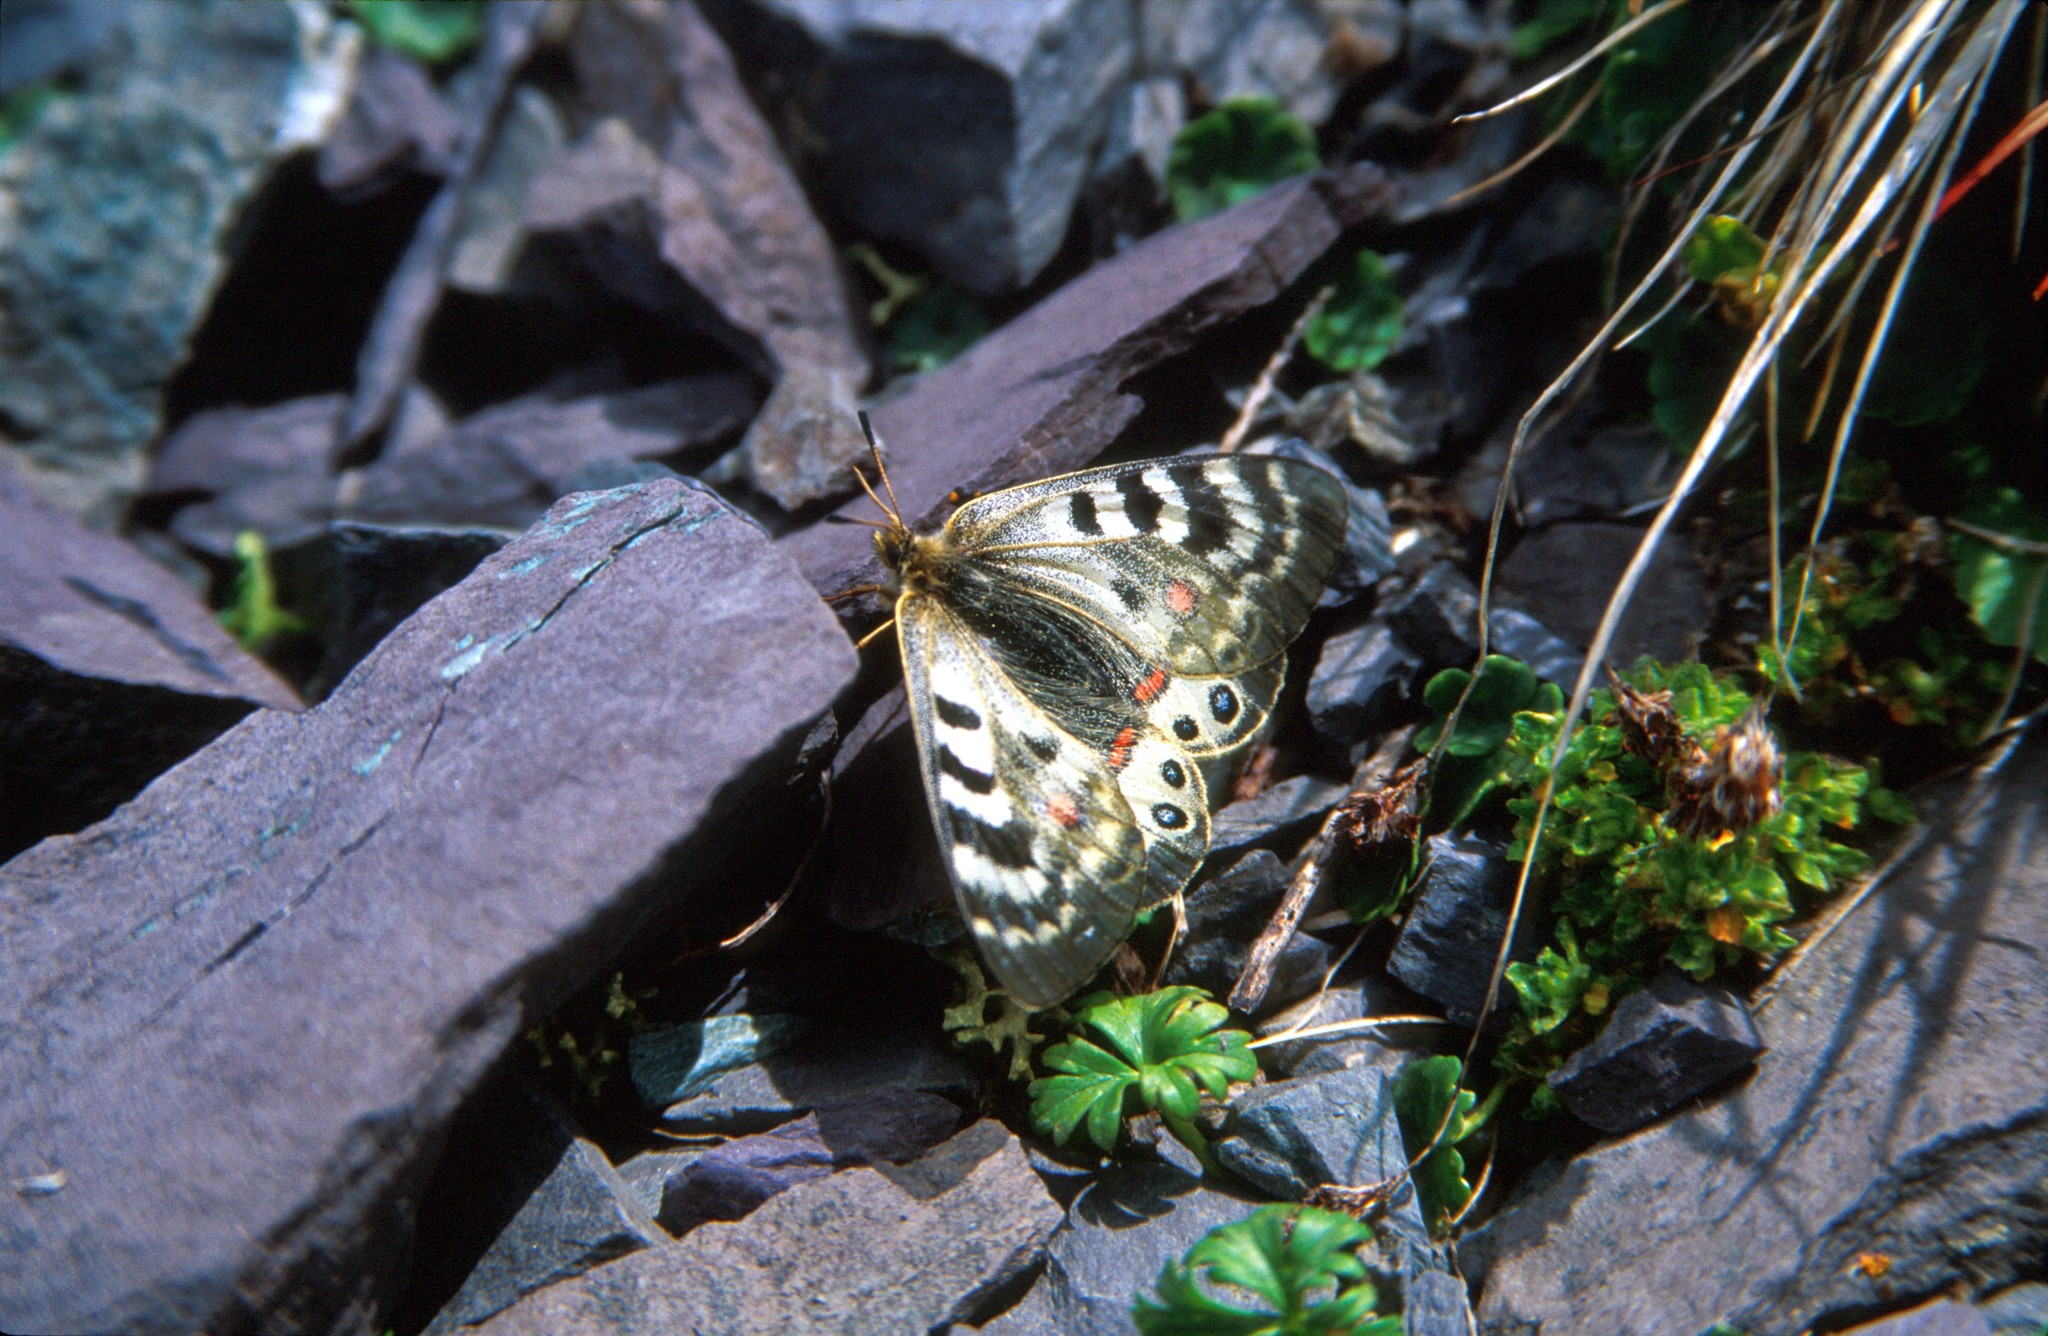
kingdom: Animalia
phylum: Arthropoda
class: Insecta
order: Lepidoptera
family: Papilionidae
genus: Parnassius
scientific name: Parnassius delphius
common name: Banded apollo
